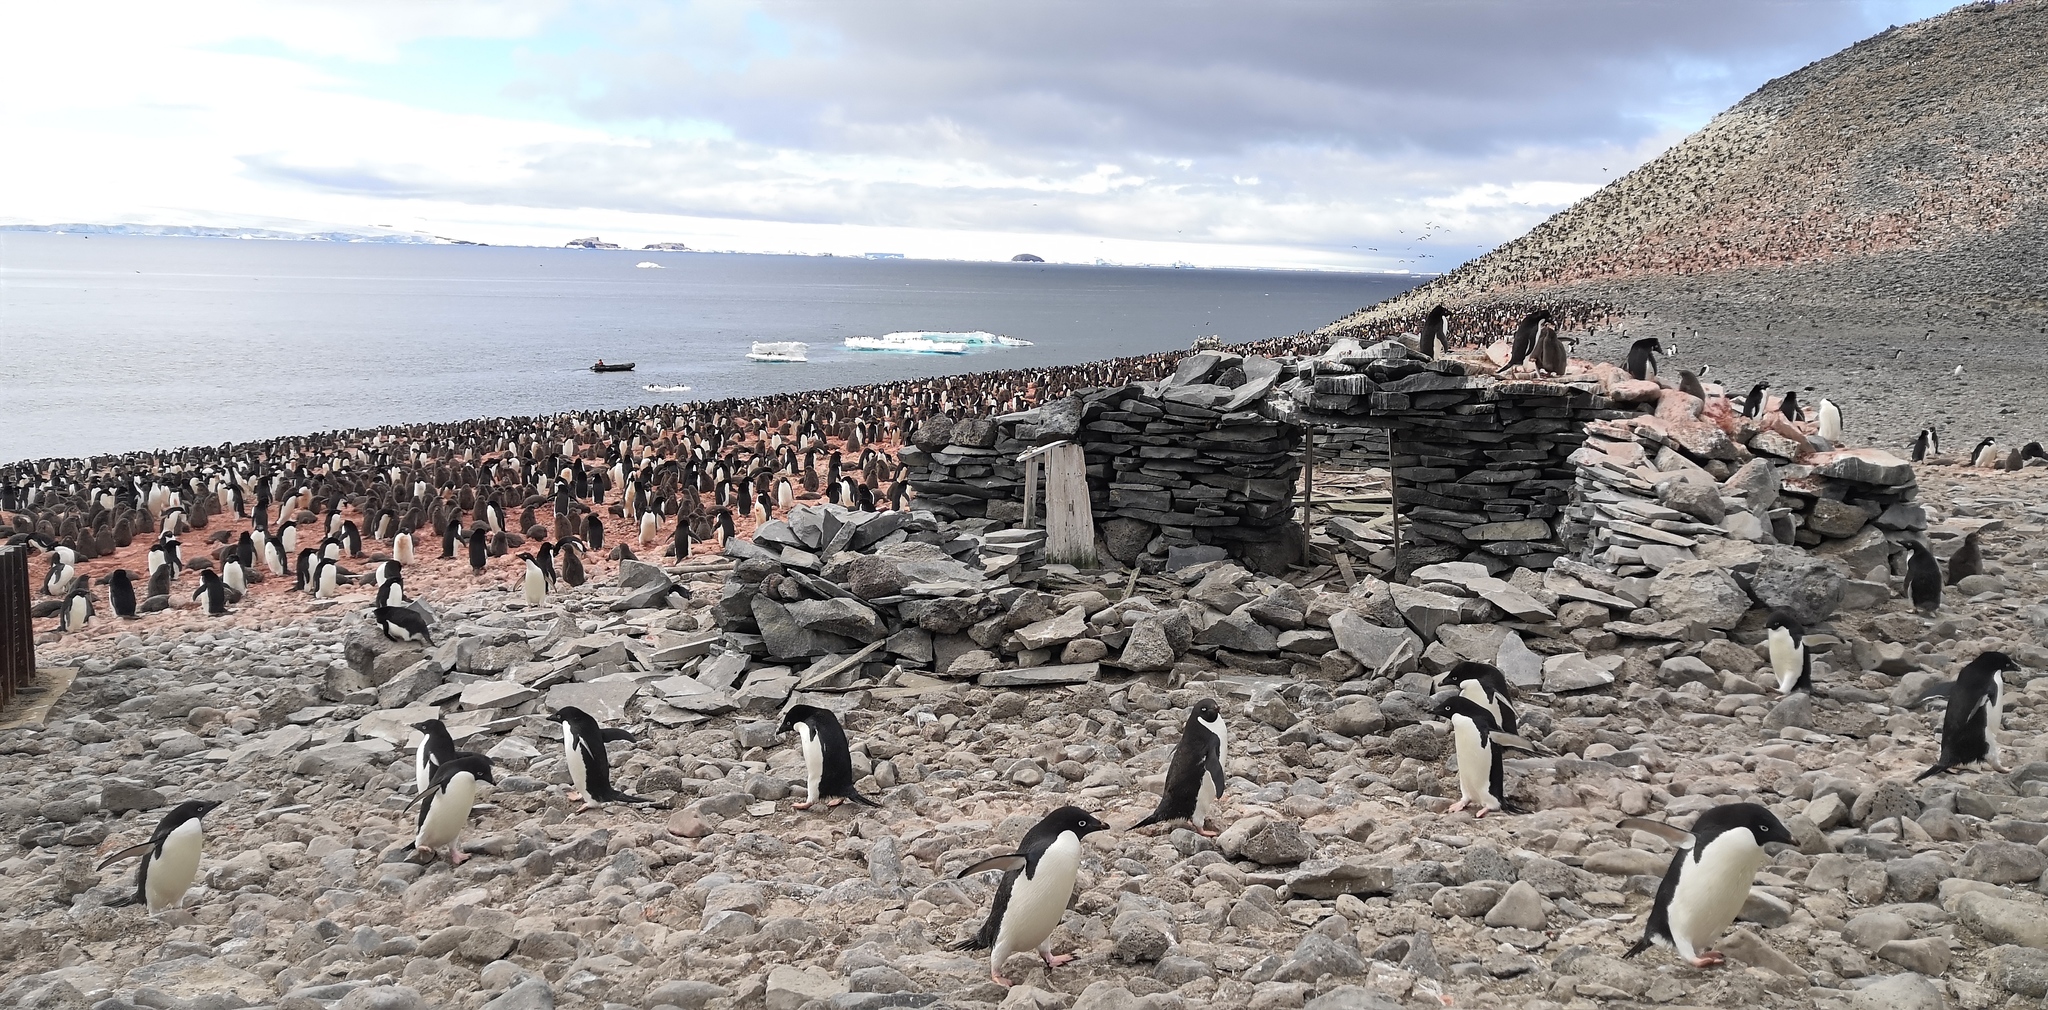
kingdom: Animalia
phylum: Chordata
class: Aves
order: Sphenisciformes
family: Spheniscidae
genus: Pygoscelis
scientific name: Pygoscelis adeliae
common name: Adelie penguin
